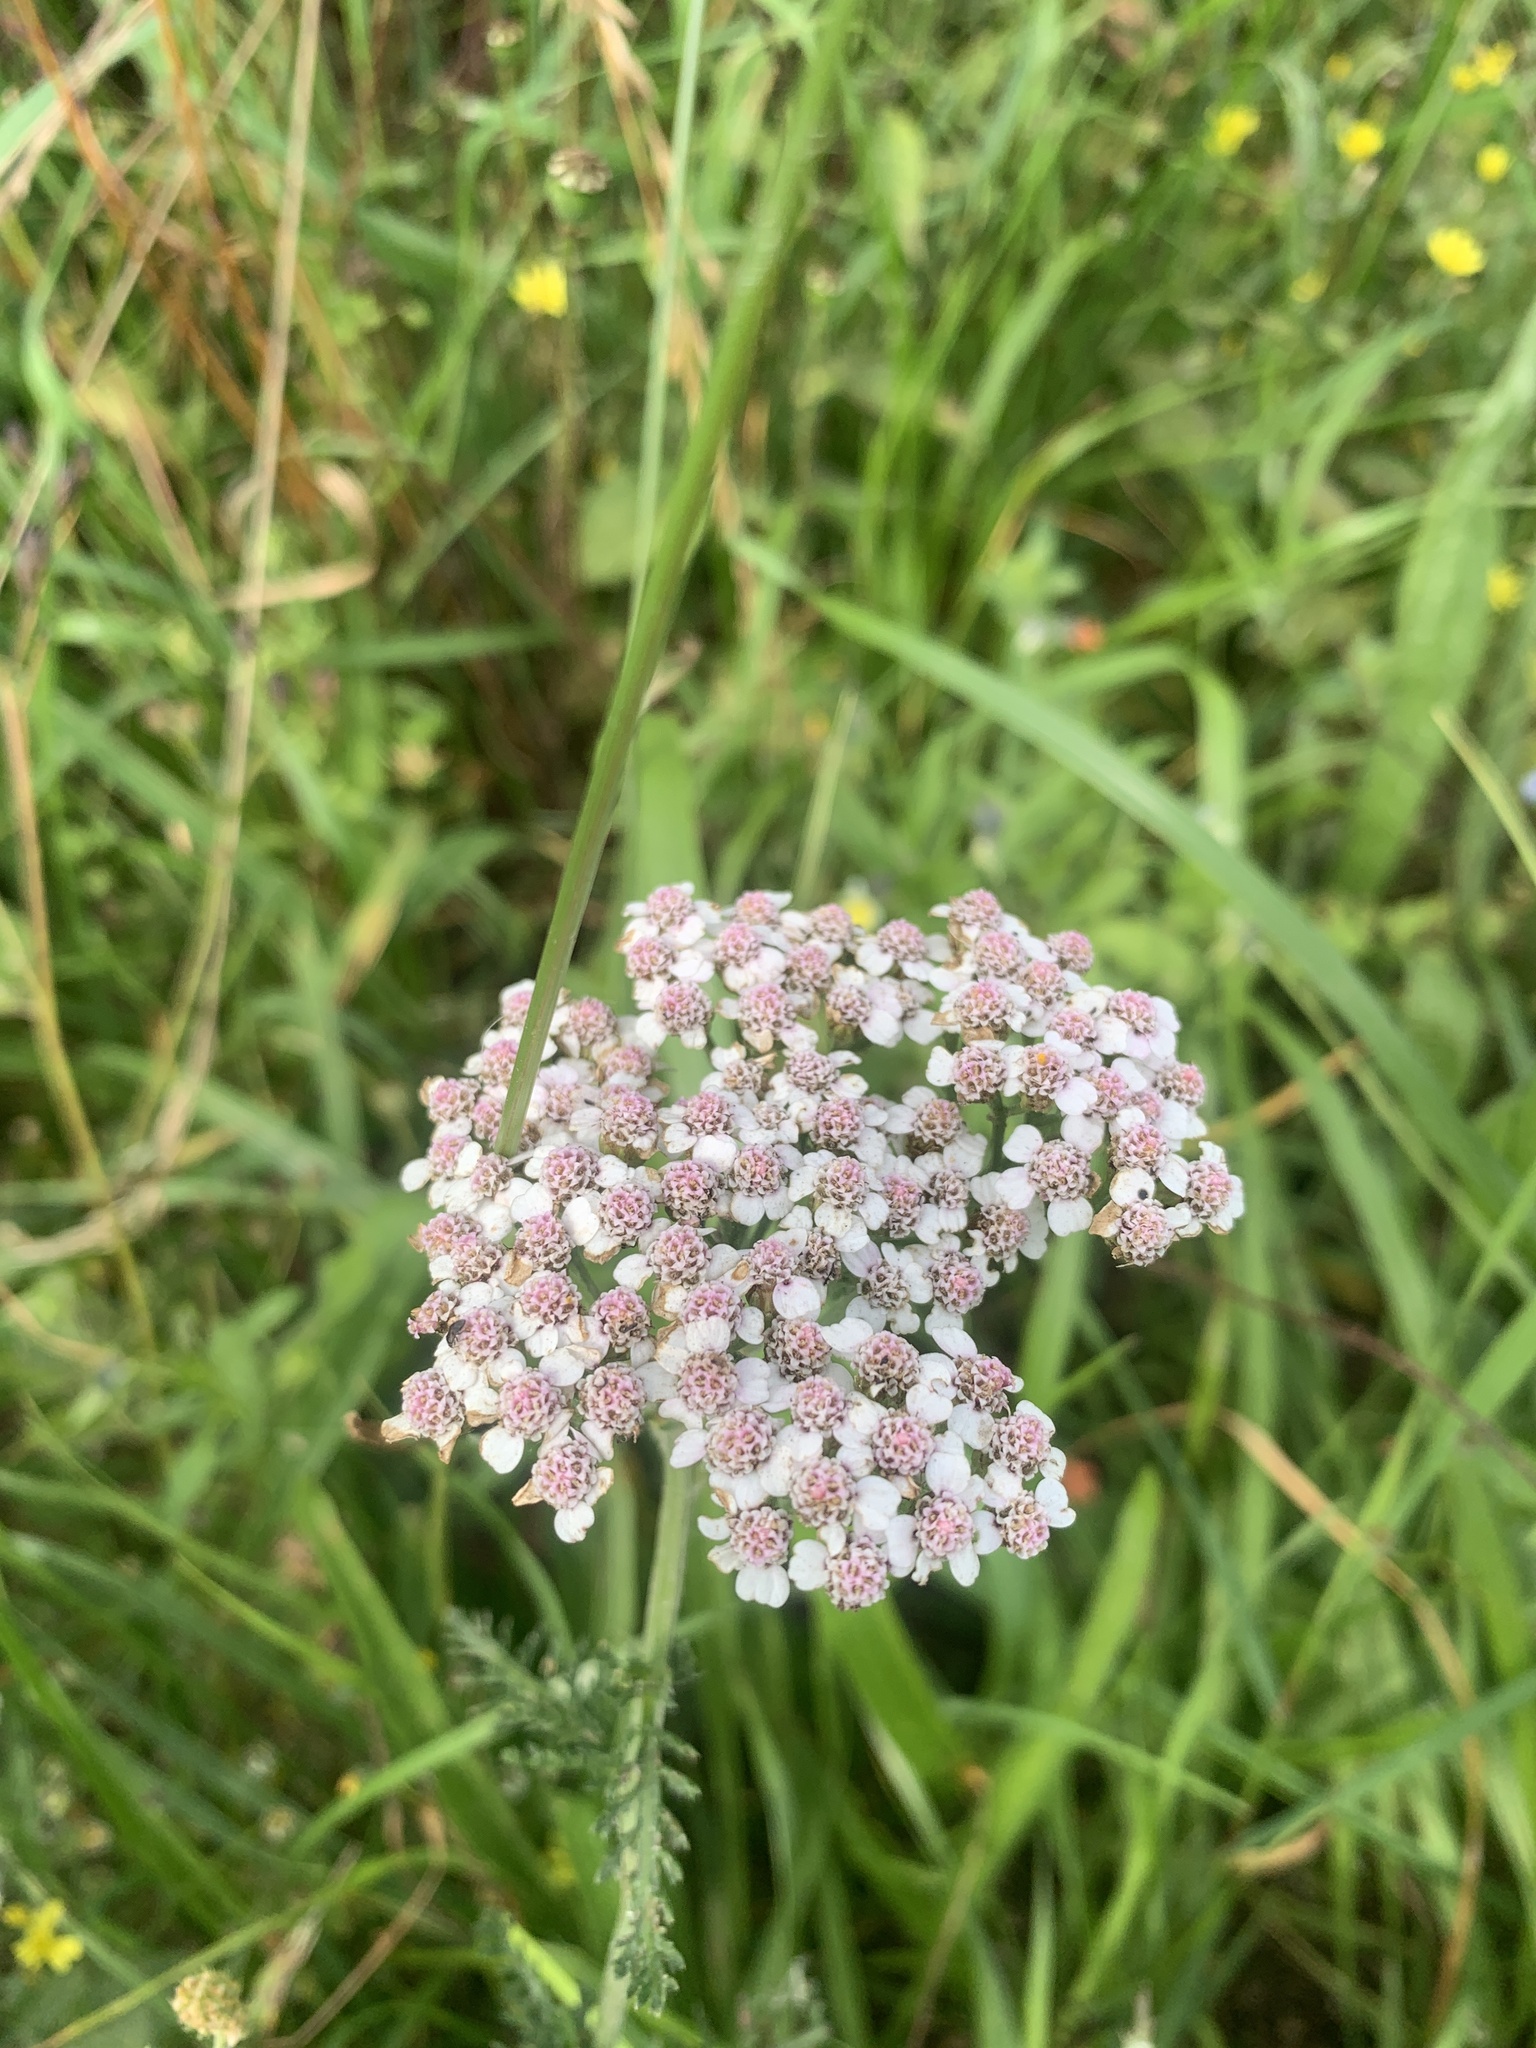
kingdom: Plantae
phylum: Tracheophyta
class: Magnoliopsida
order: Asterales
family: Asteraceae
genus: Achillea
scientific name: Achillea millefolium
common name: Yarrow
